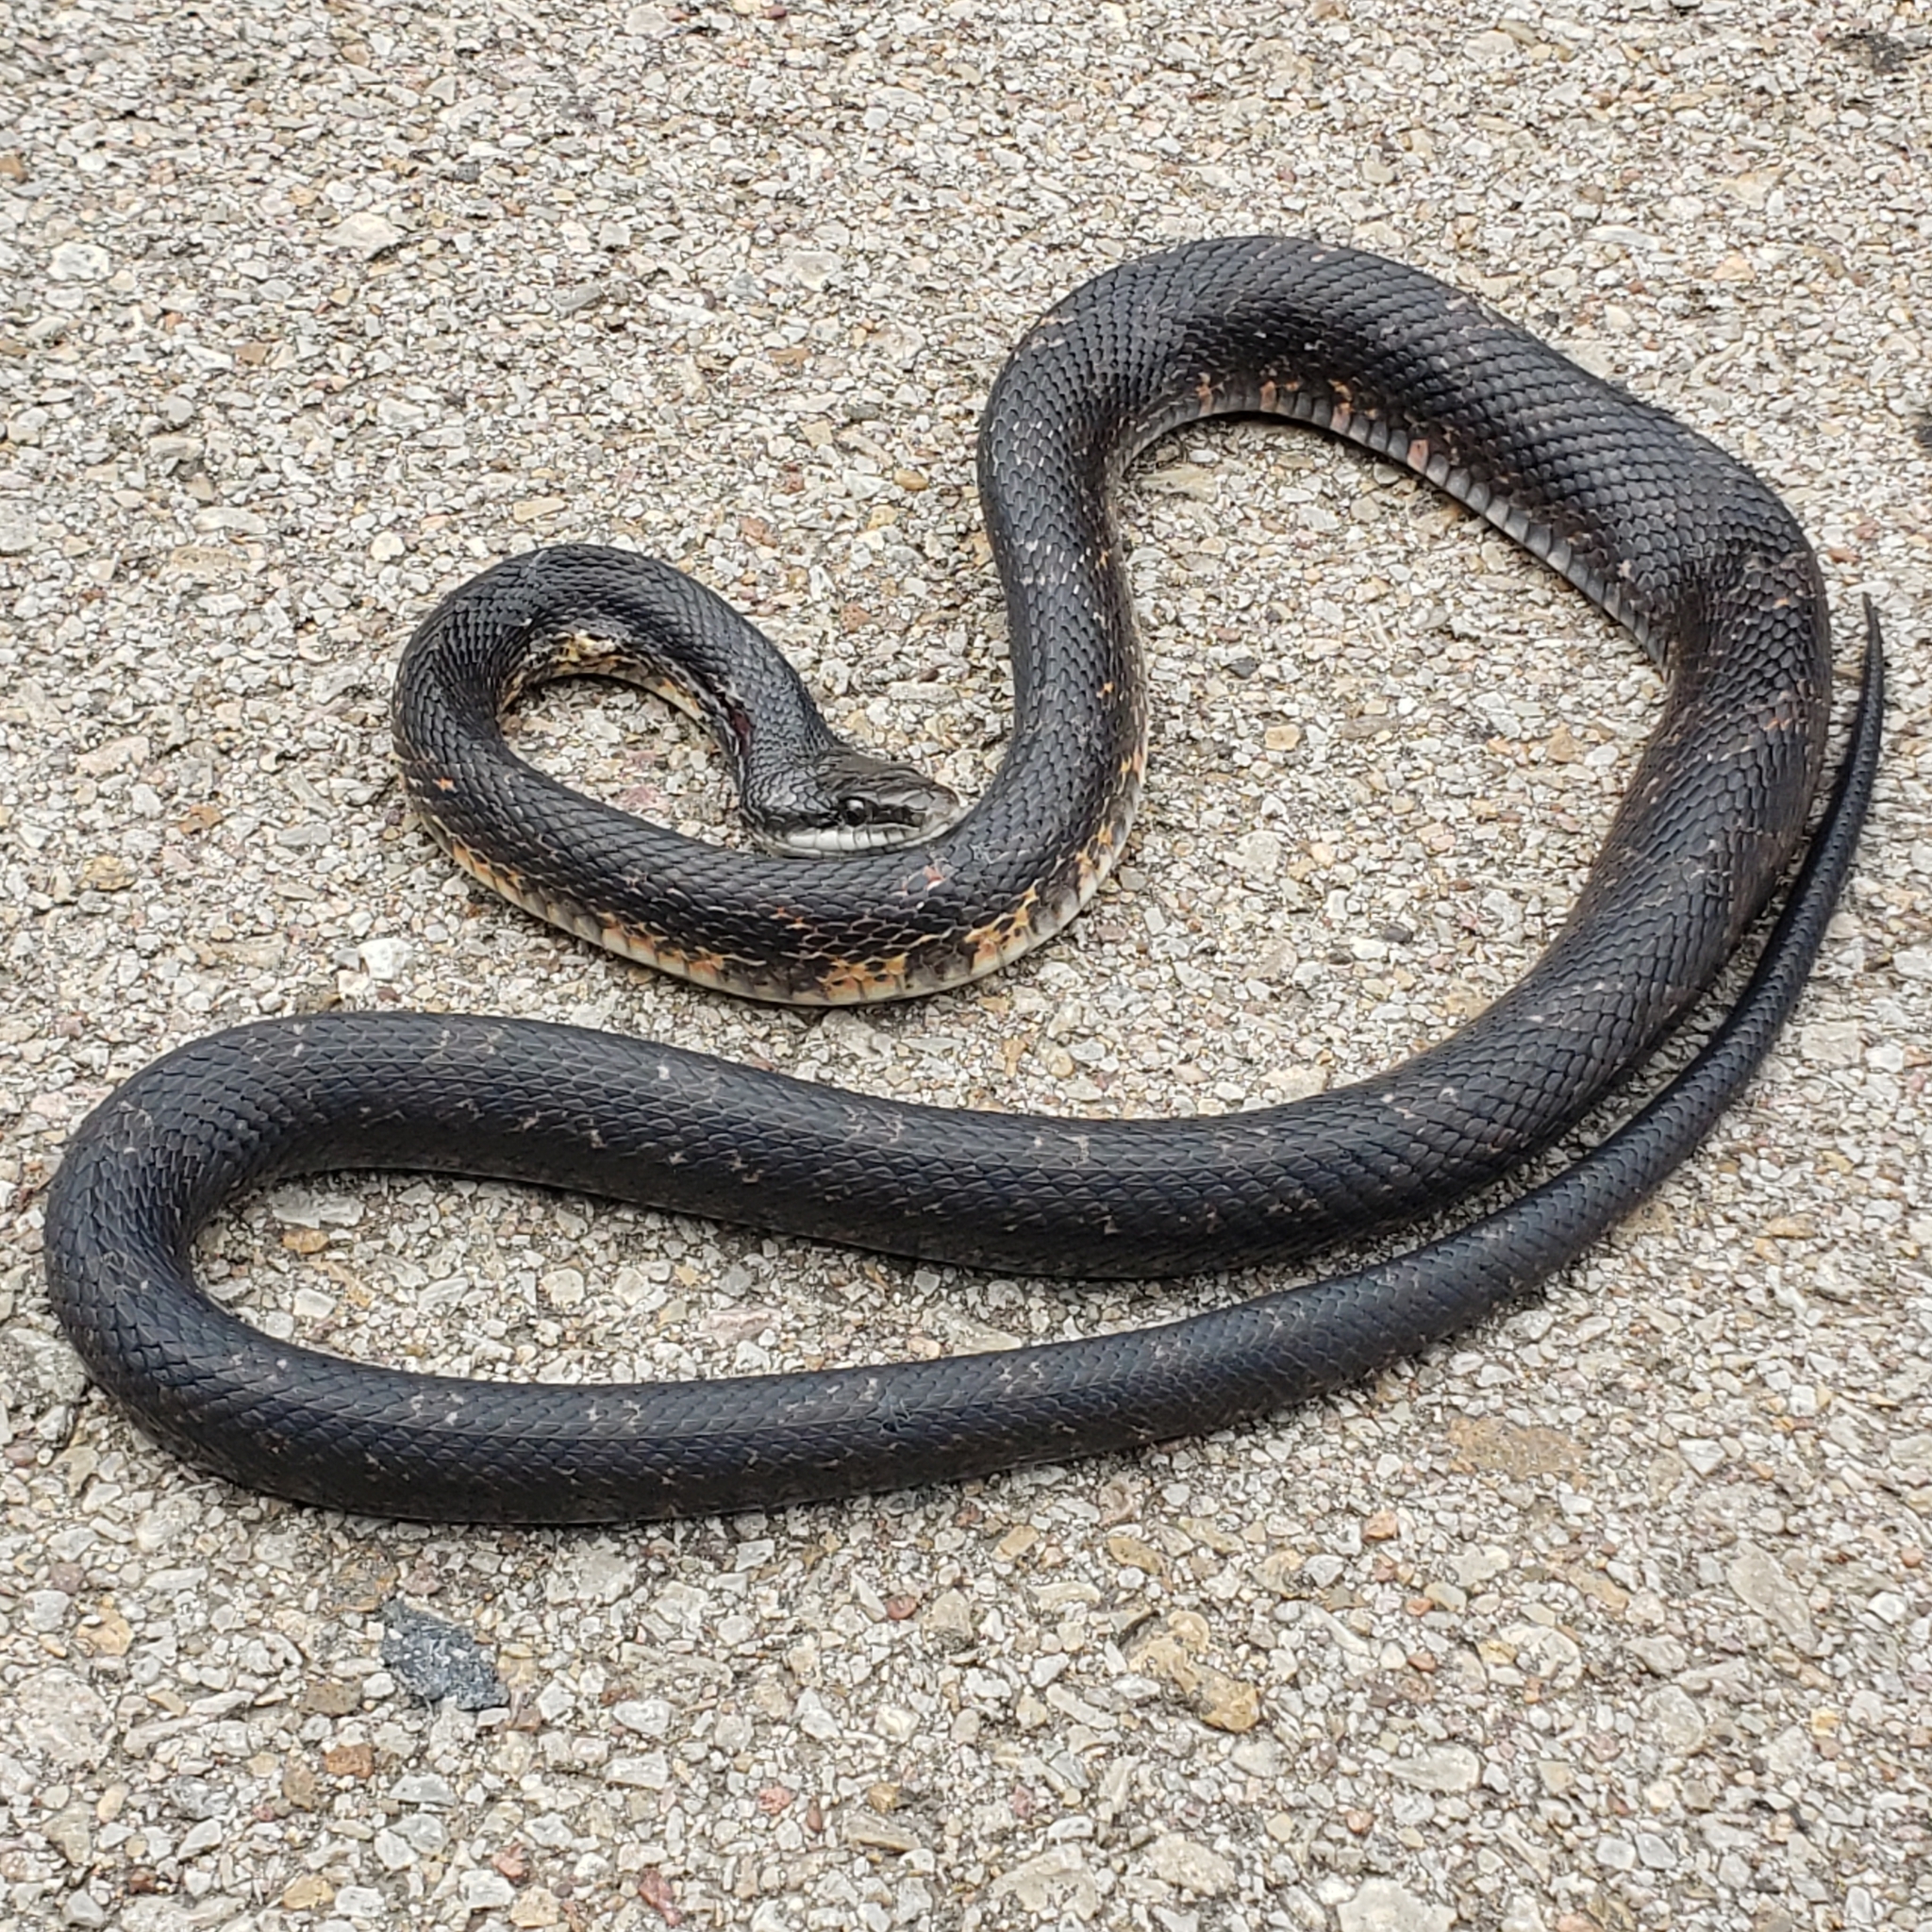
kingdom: Animalia
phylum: Chordata
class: Squamata
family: Colubridae
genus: Pantherophis
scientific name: Pantherophis obsoletus
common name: Black rat snake
